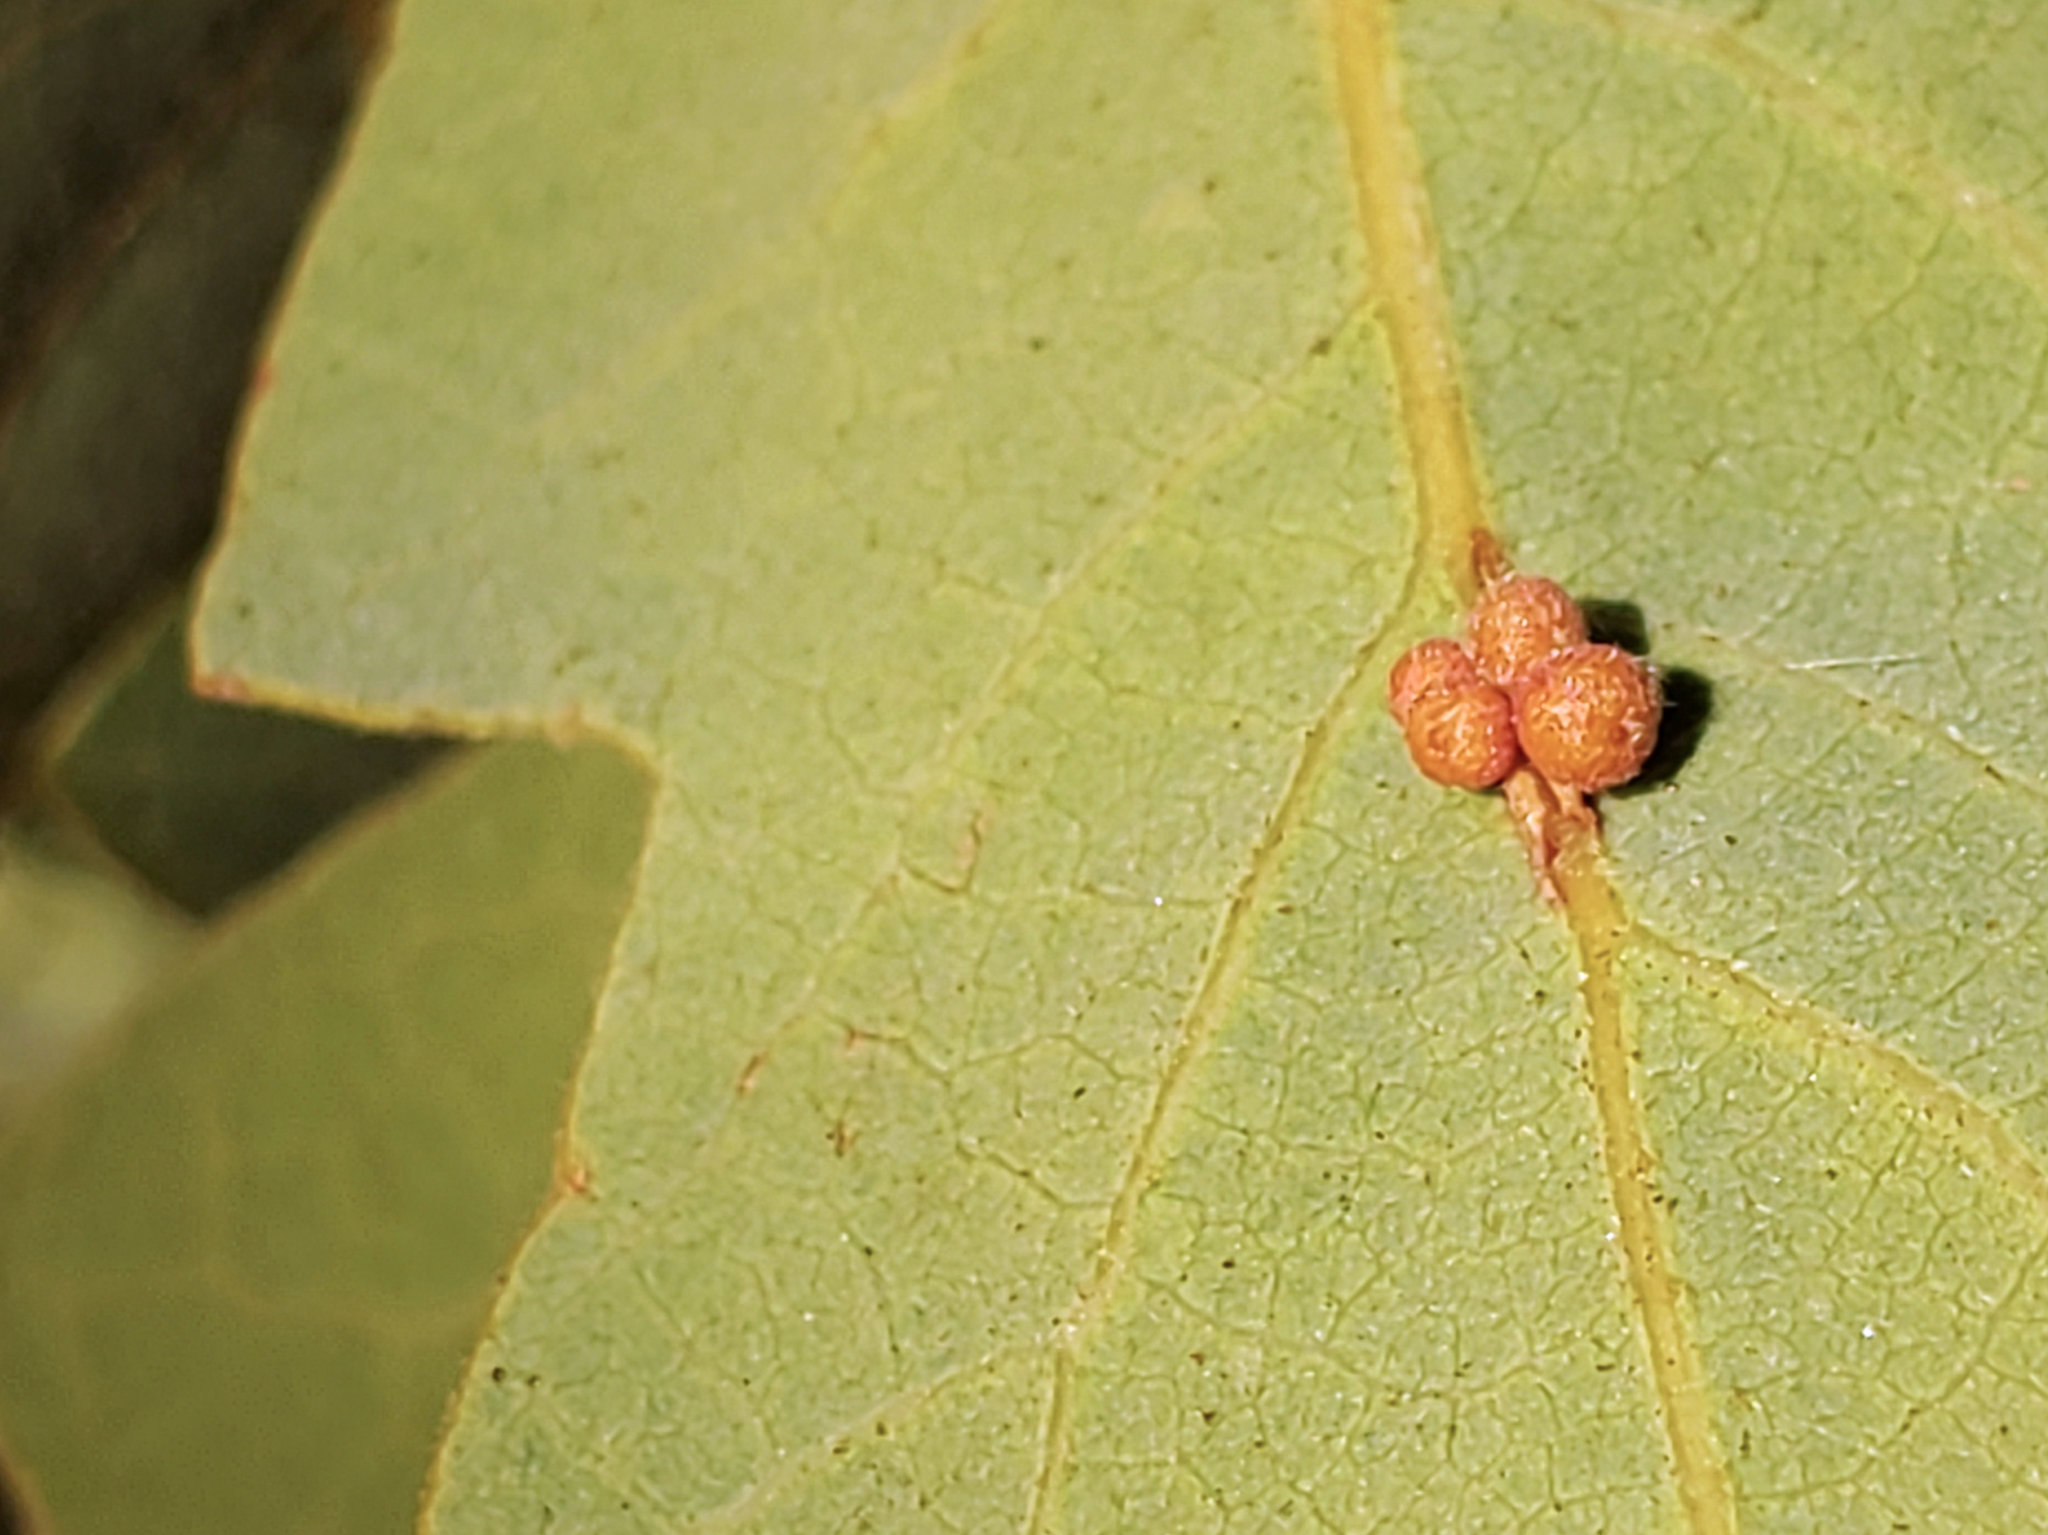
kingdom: Animalia
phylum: Arthropoda
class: Insecta
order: Hymenoptera
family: Cynipidae
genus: Andricus
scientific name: Andricus
